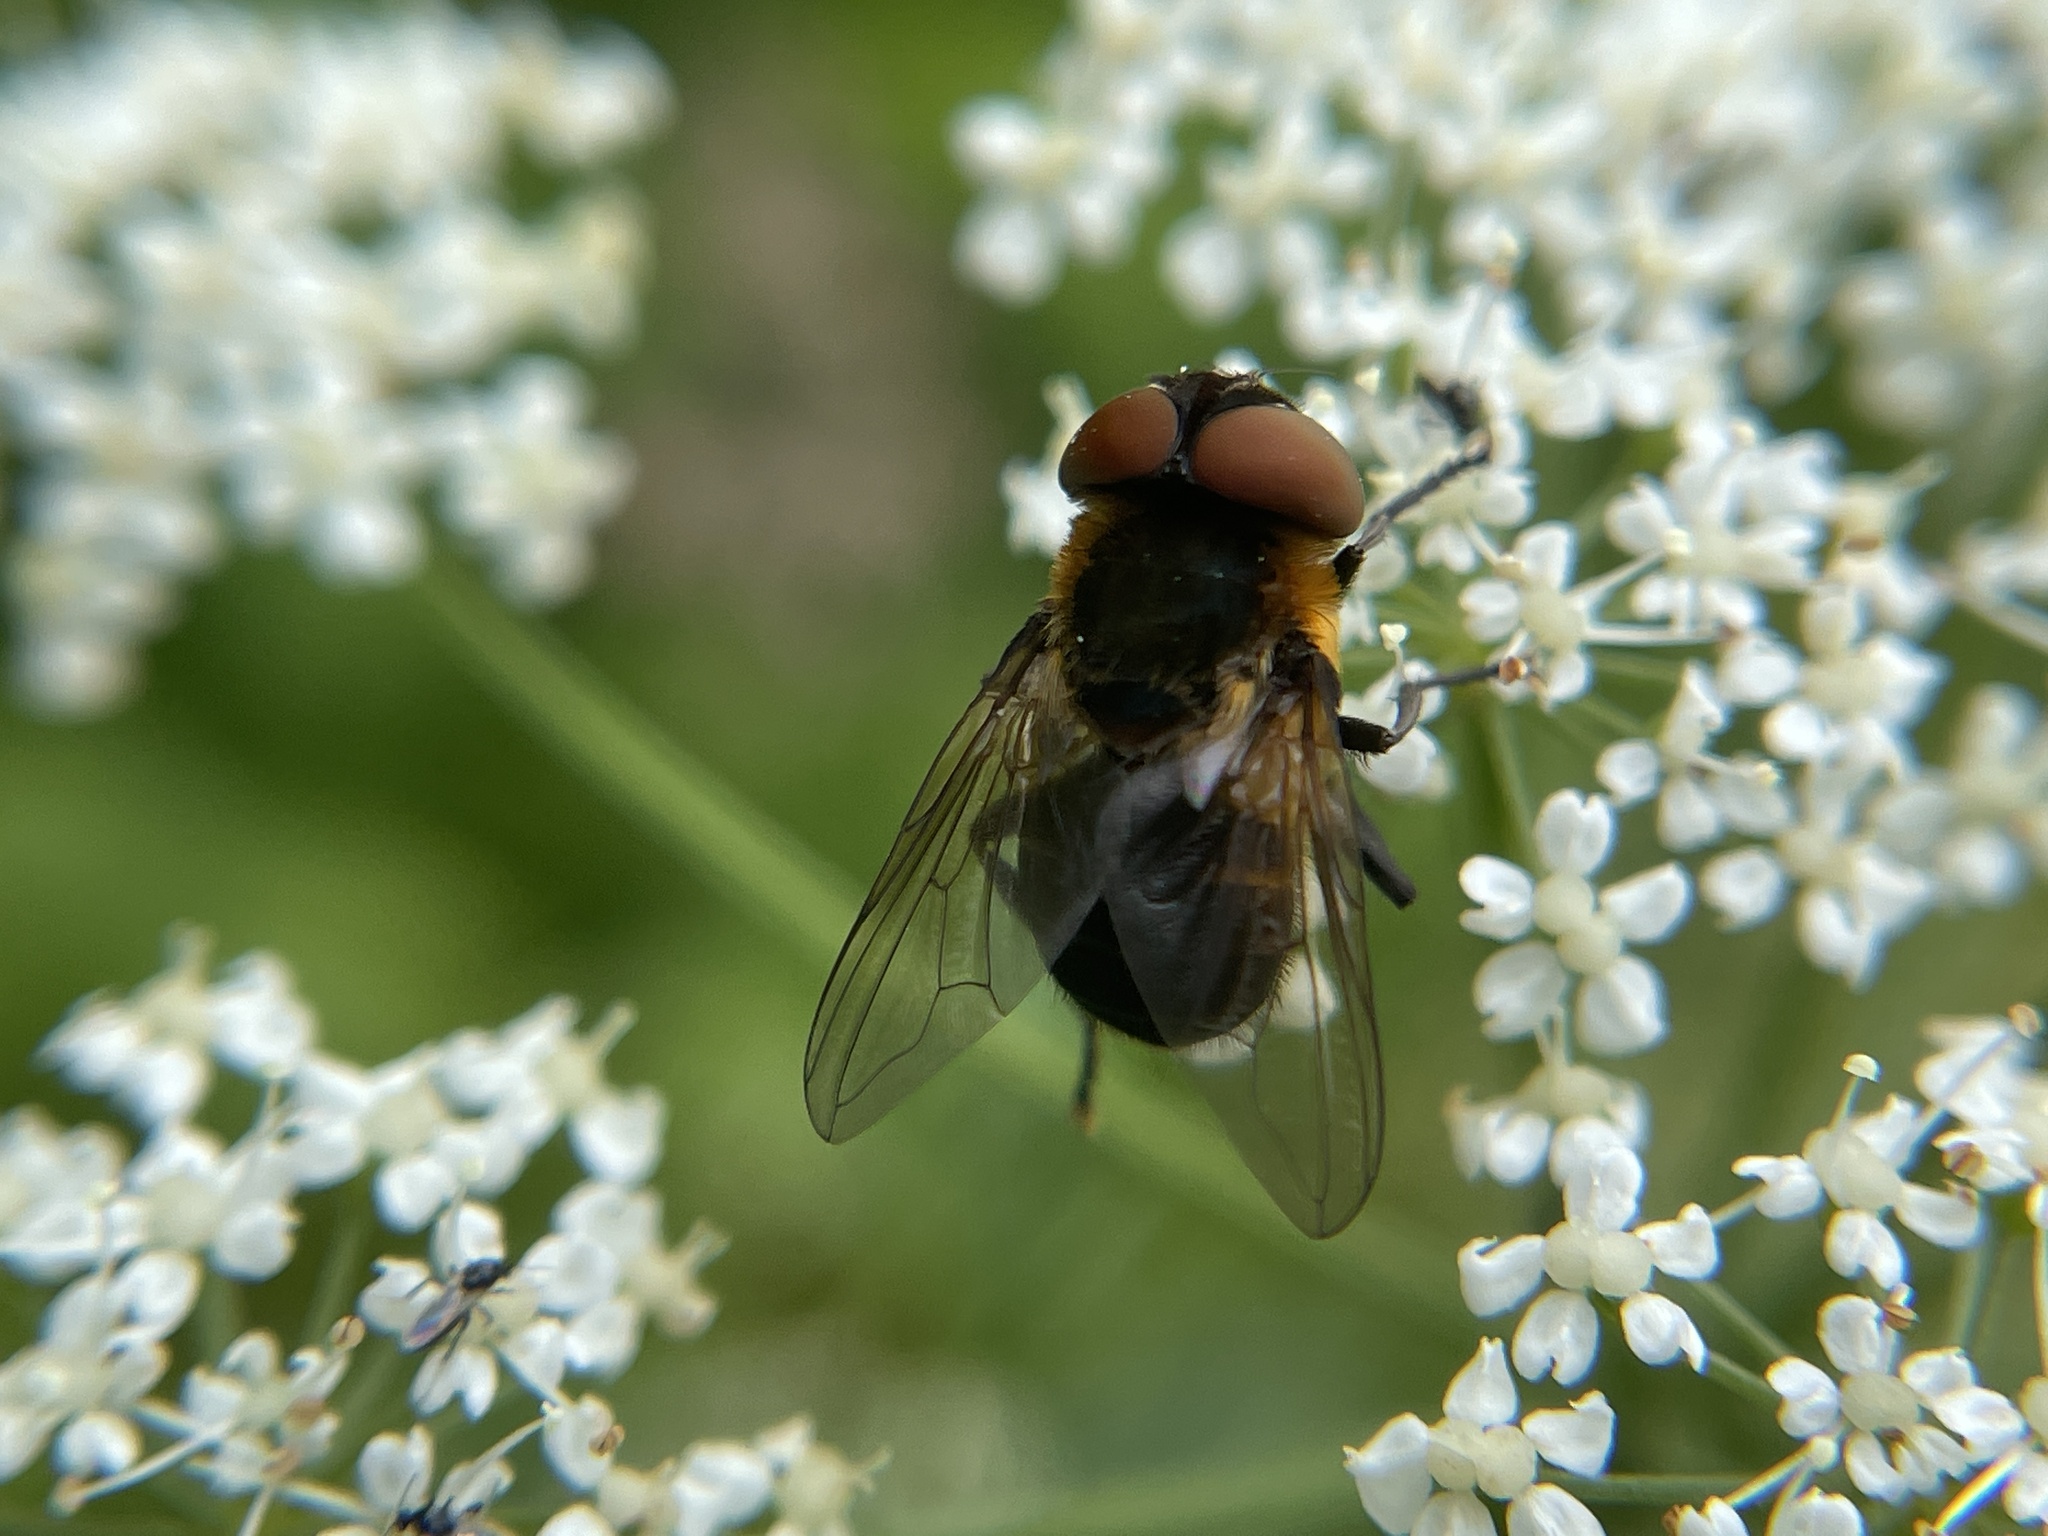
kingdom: Animalia
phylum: Arthropoda
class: Insecta
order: Diptera
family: Tachinidae
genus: Phasia
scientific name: Phasia hemiptera
